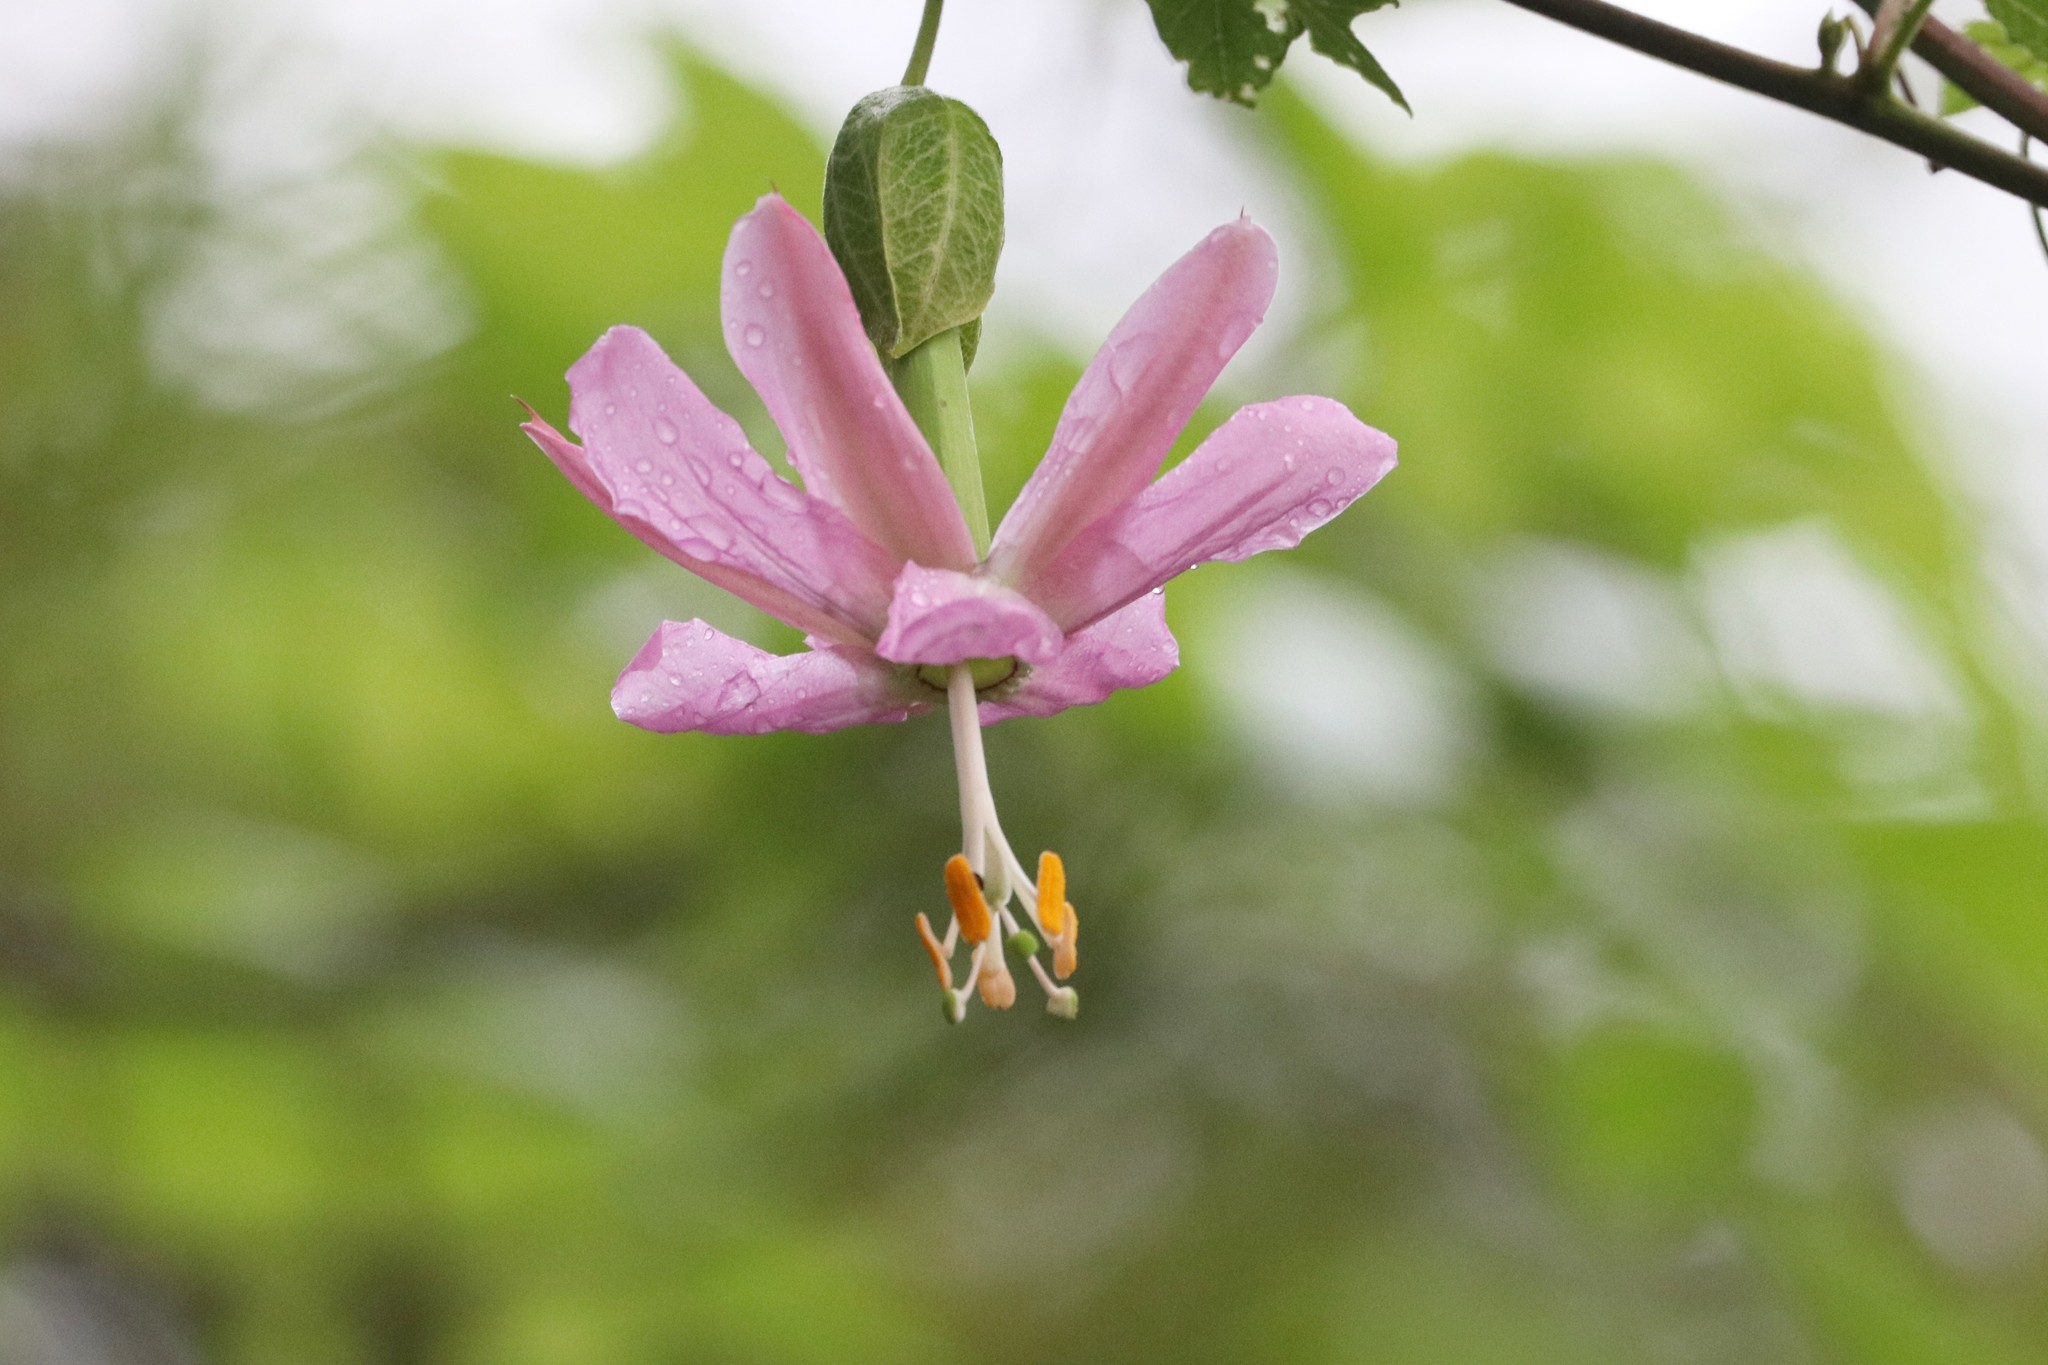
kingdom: Plantae
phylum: Tracheophyta
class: Magnoliopsida
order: Malpighiales
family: Passifloraceae
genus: Passiflora
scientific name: Passiflora tarminiana
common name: Banana poka
